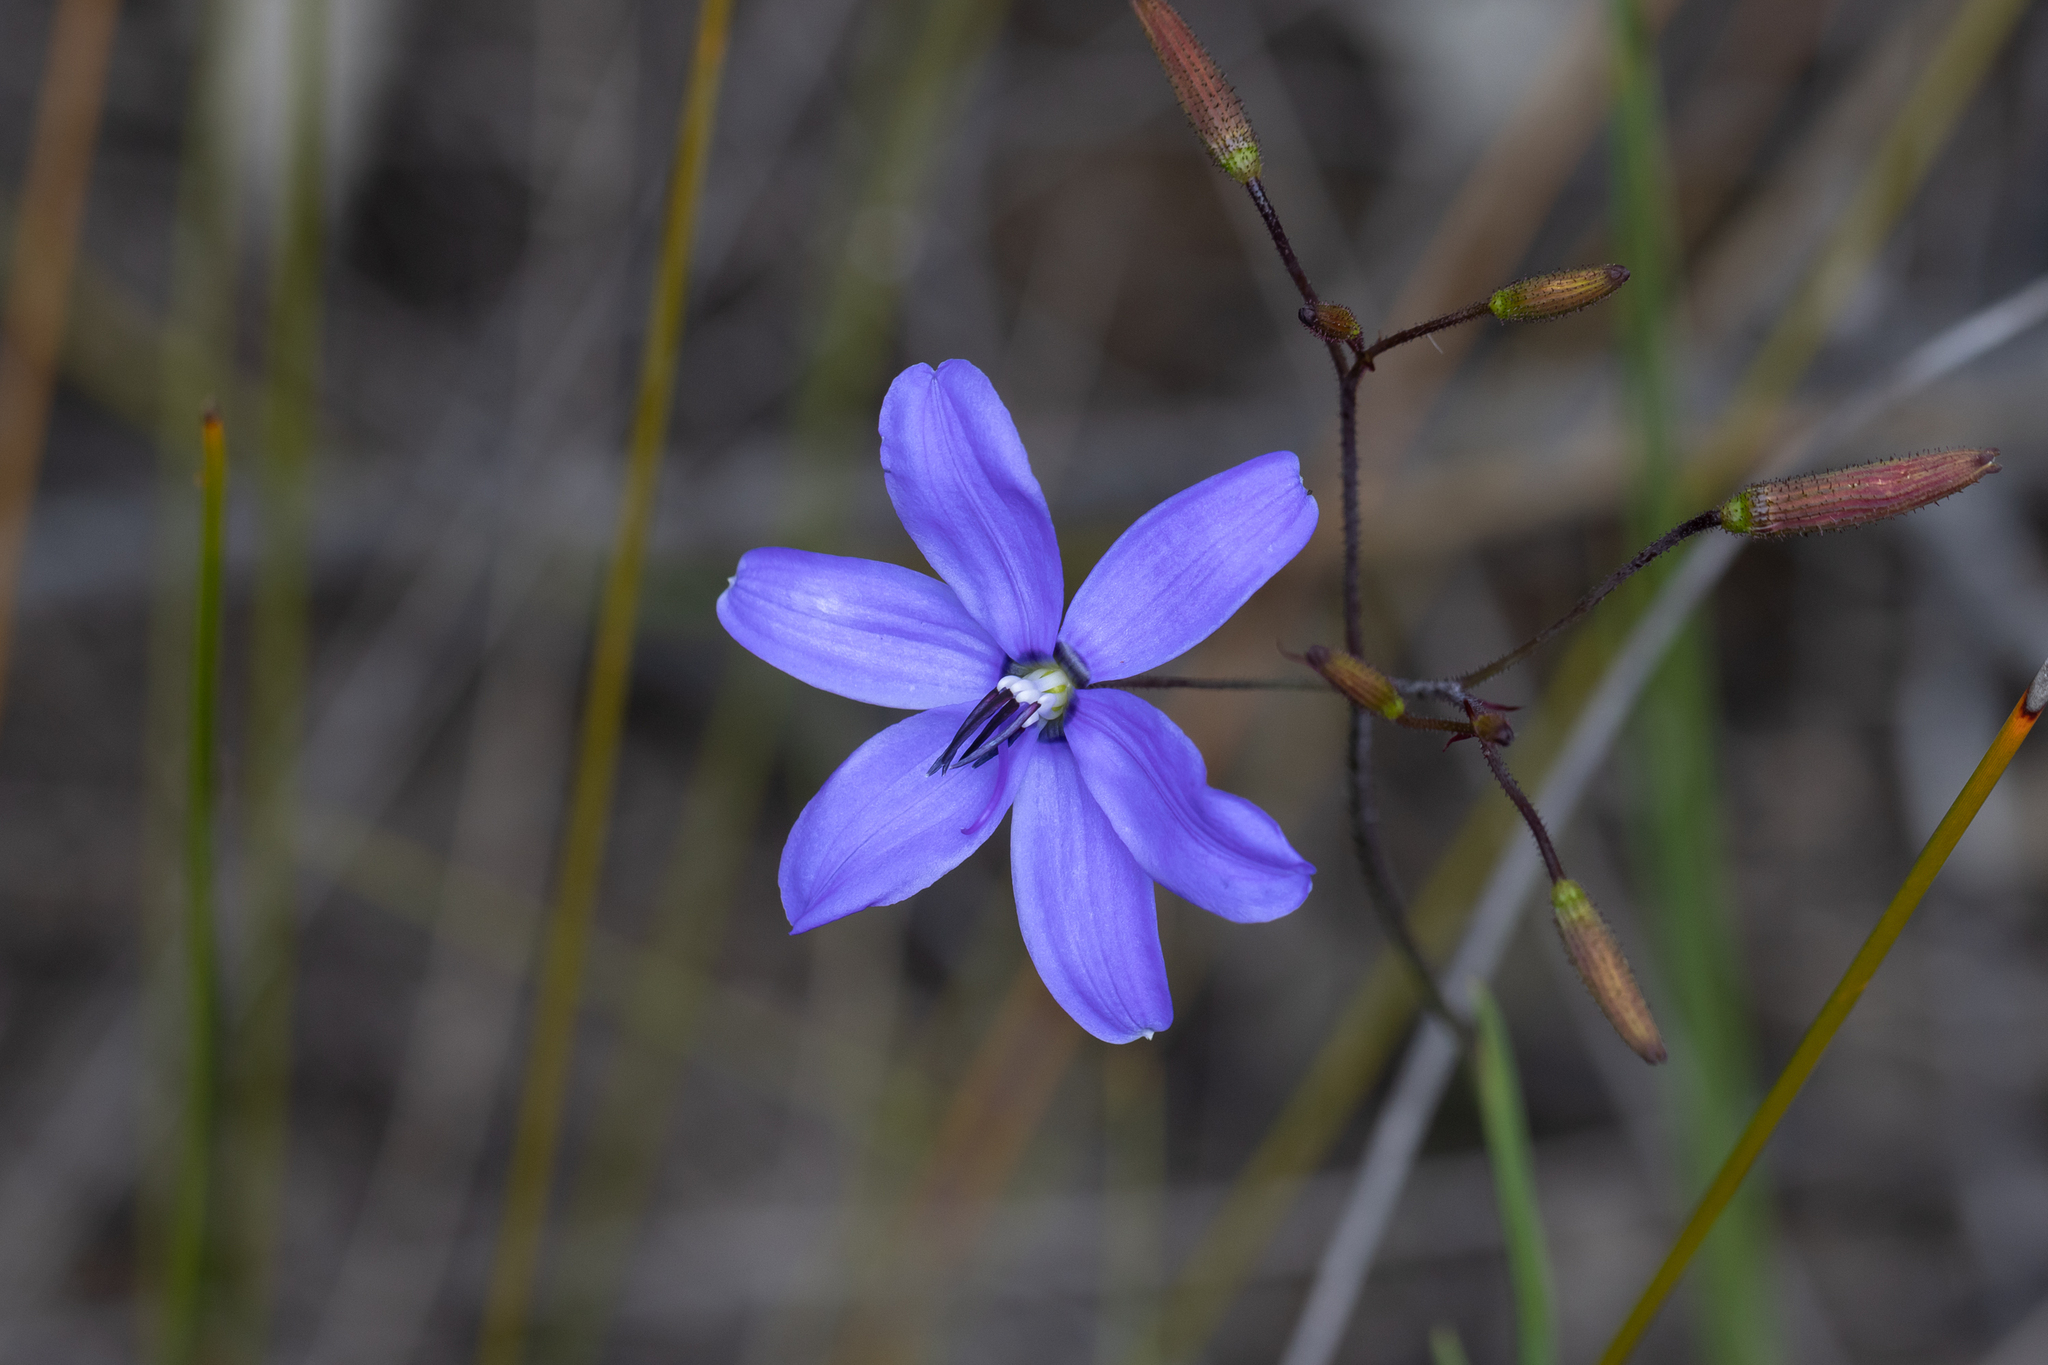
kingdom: Plantae
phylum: Tracheophyta
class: Liliopsida
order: Asparagales
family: Asphodelaceae
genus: Agrostocrinum
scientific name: Agrostocrinum hirsutum
